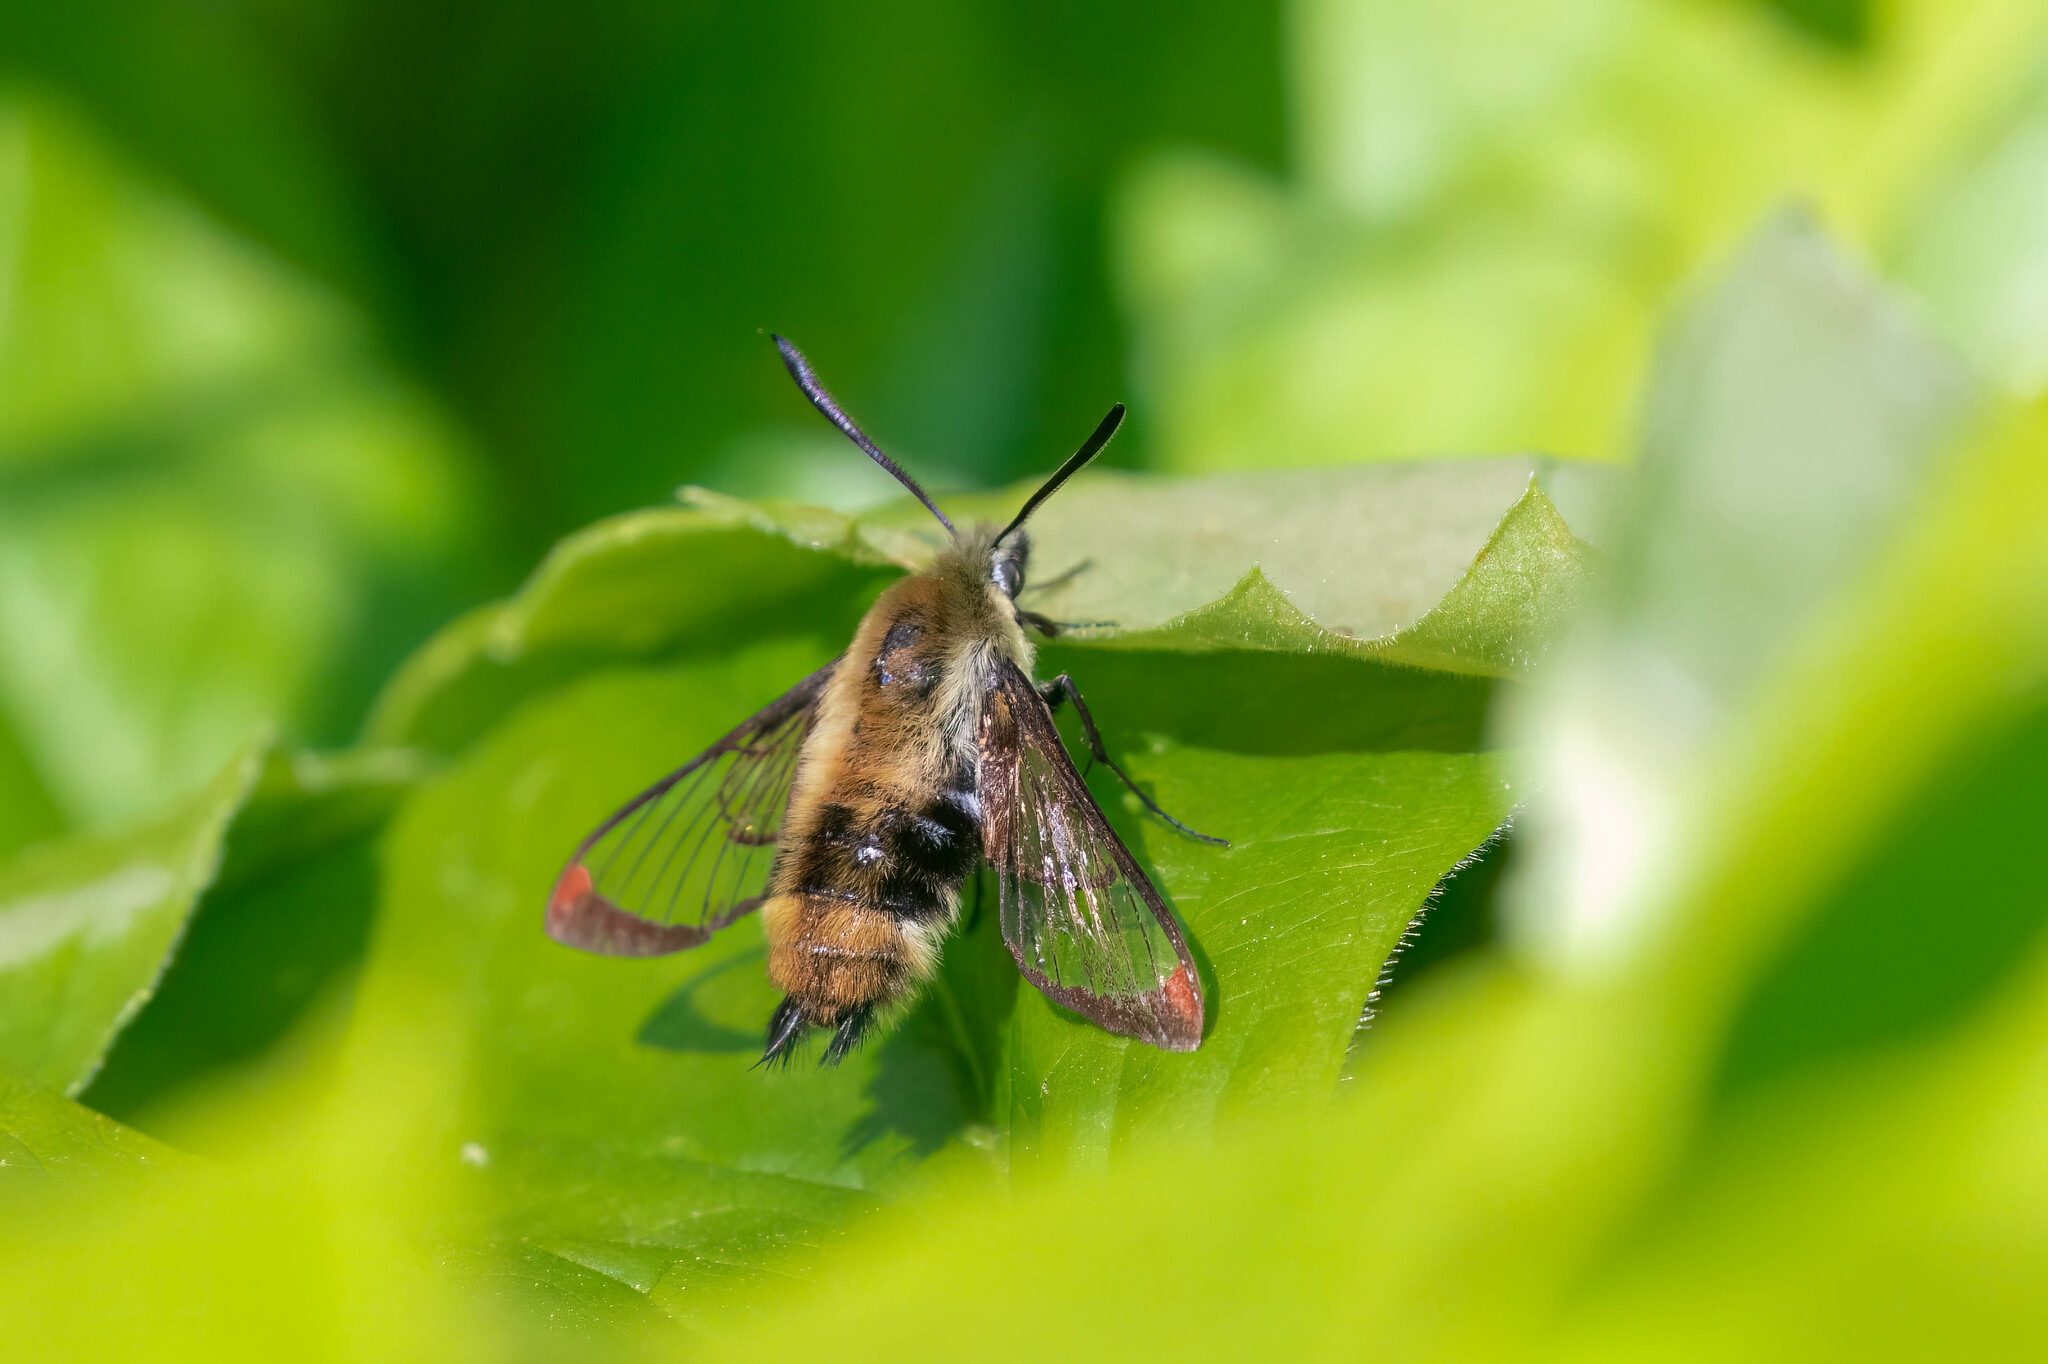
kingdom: Animalia
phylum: Arthropoda
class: Insecta
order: Lepidoptera
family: Sphingidae
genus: Hemaris
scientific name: Hemaris diffinis
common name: Bumblebee moth
